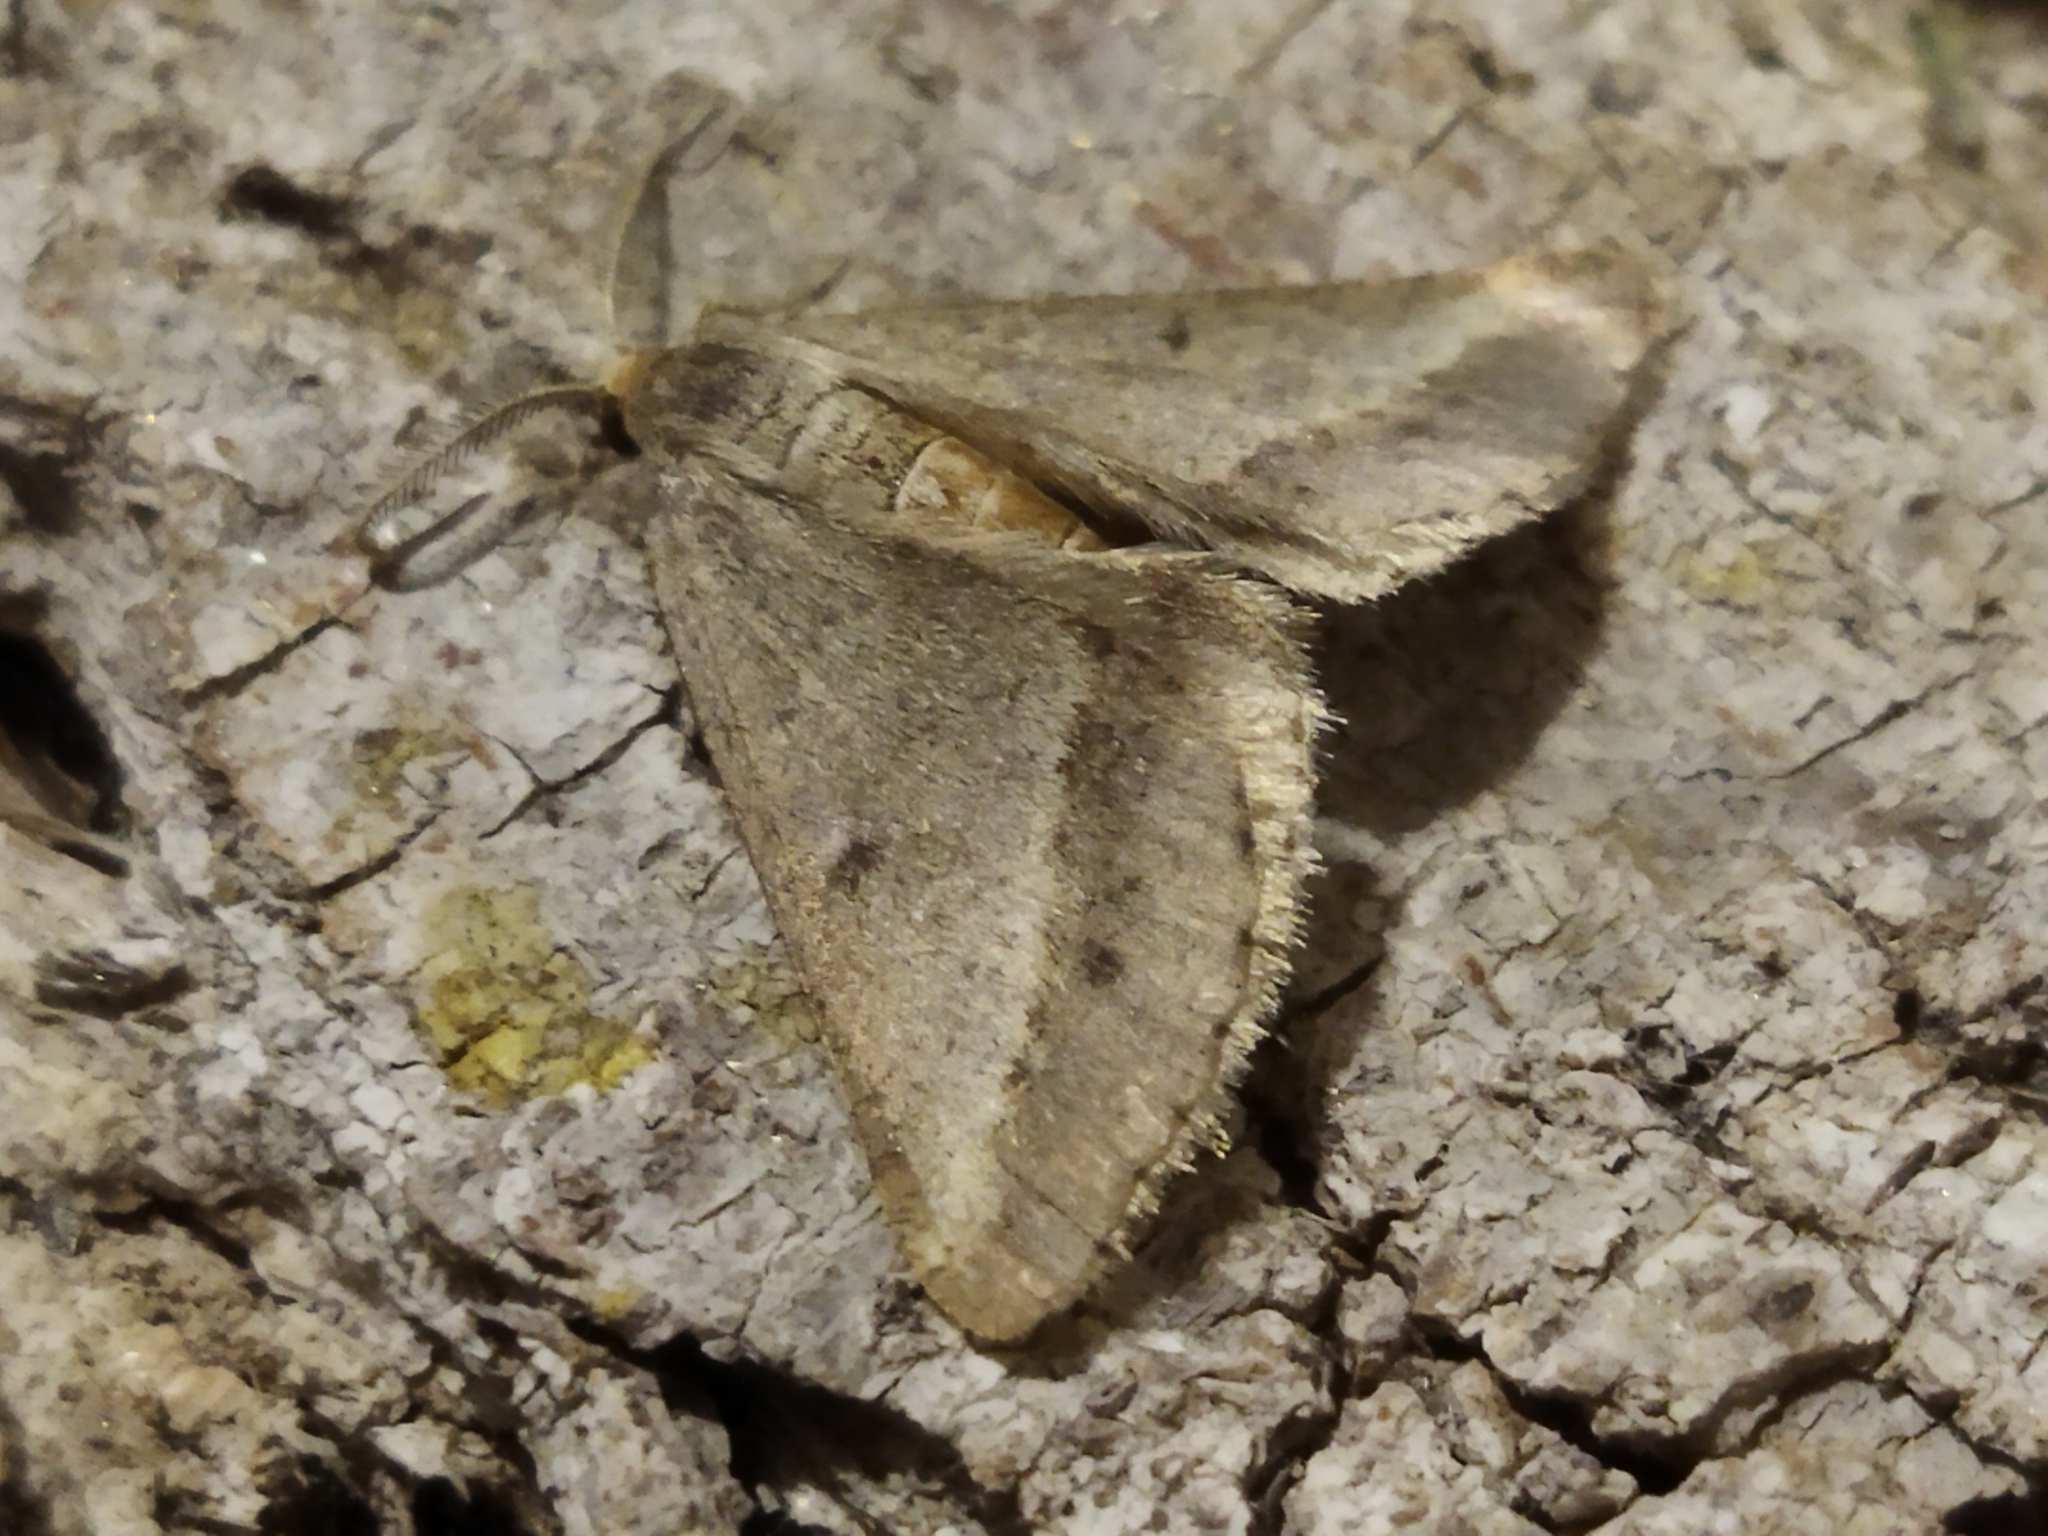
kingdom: Animalia
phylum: Arthropoda
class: Insecta
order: Lepidoptera
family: Geometridae
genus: Tephrina
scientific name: Tephrina arenacearia
